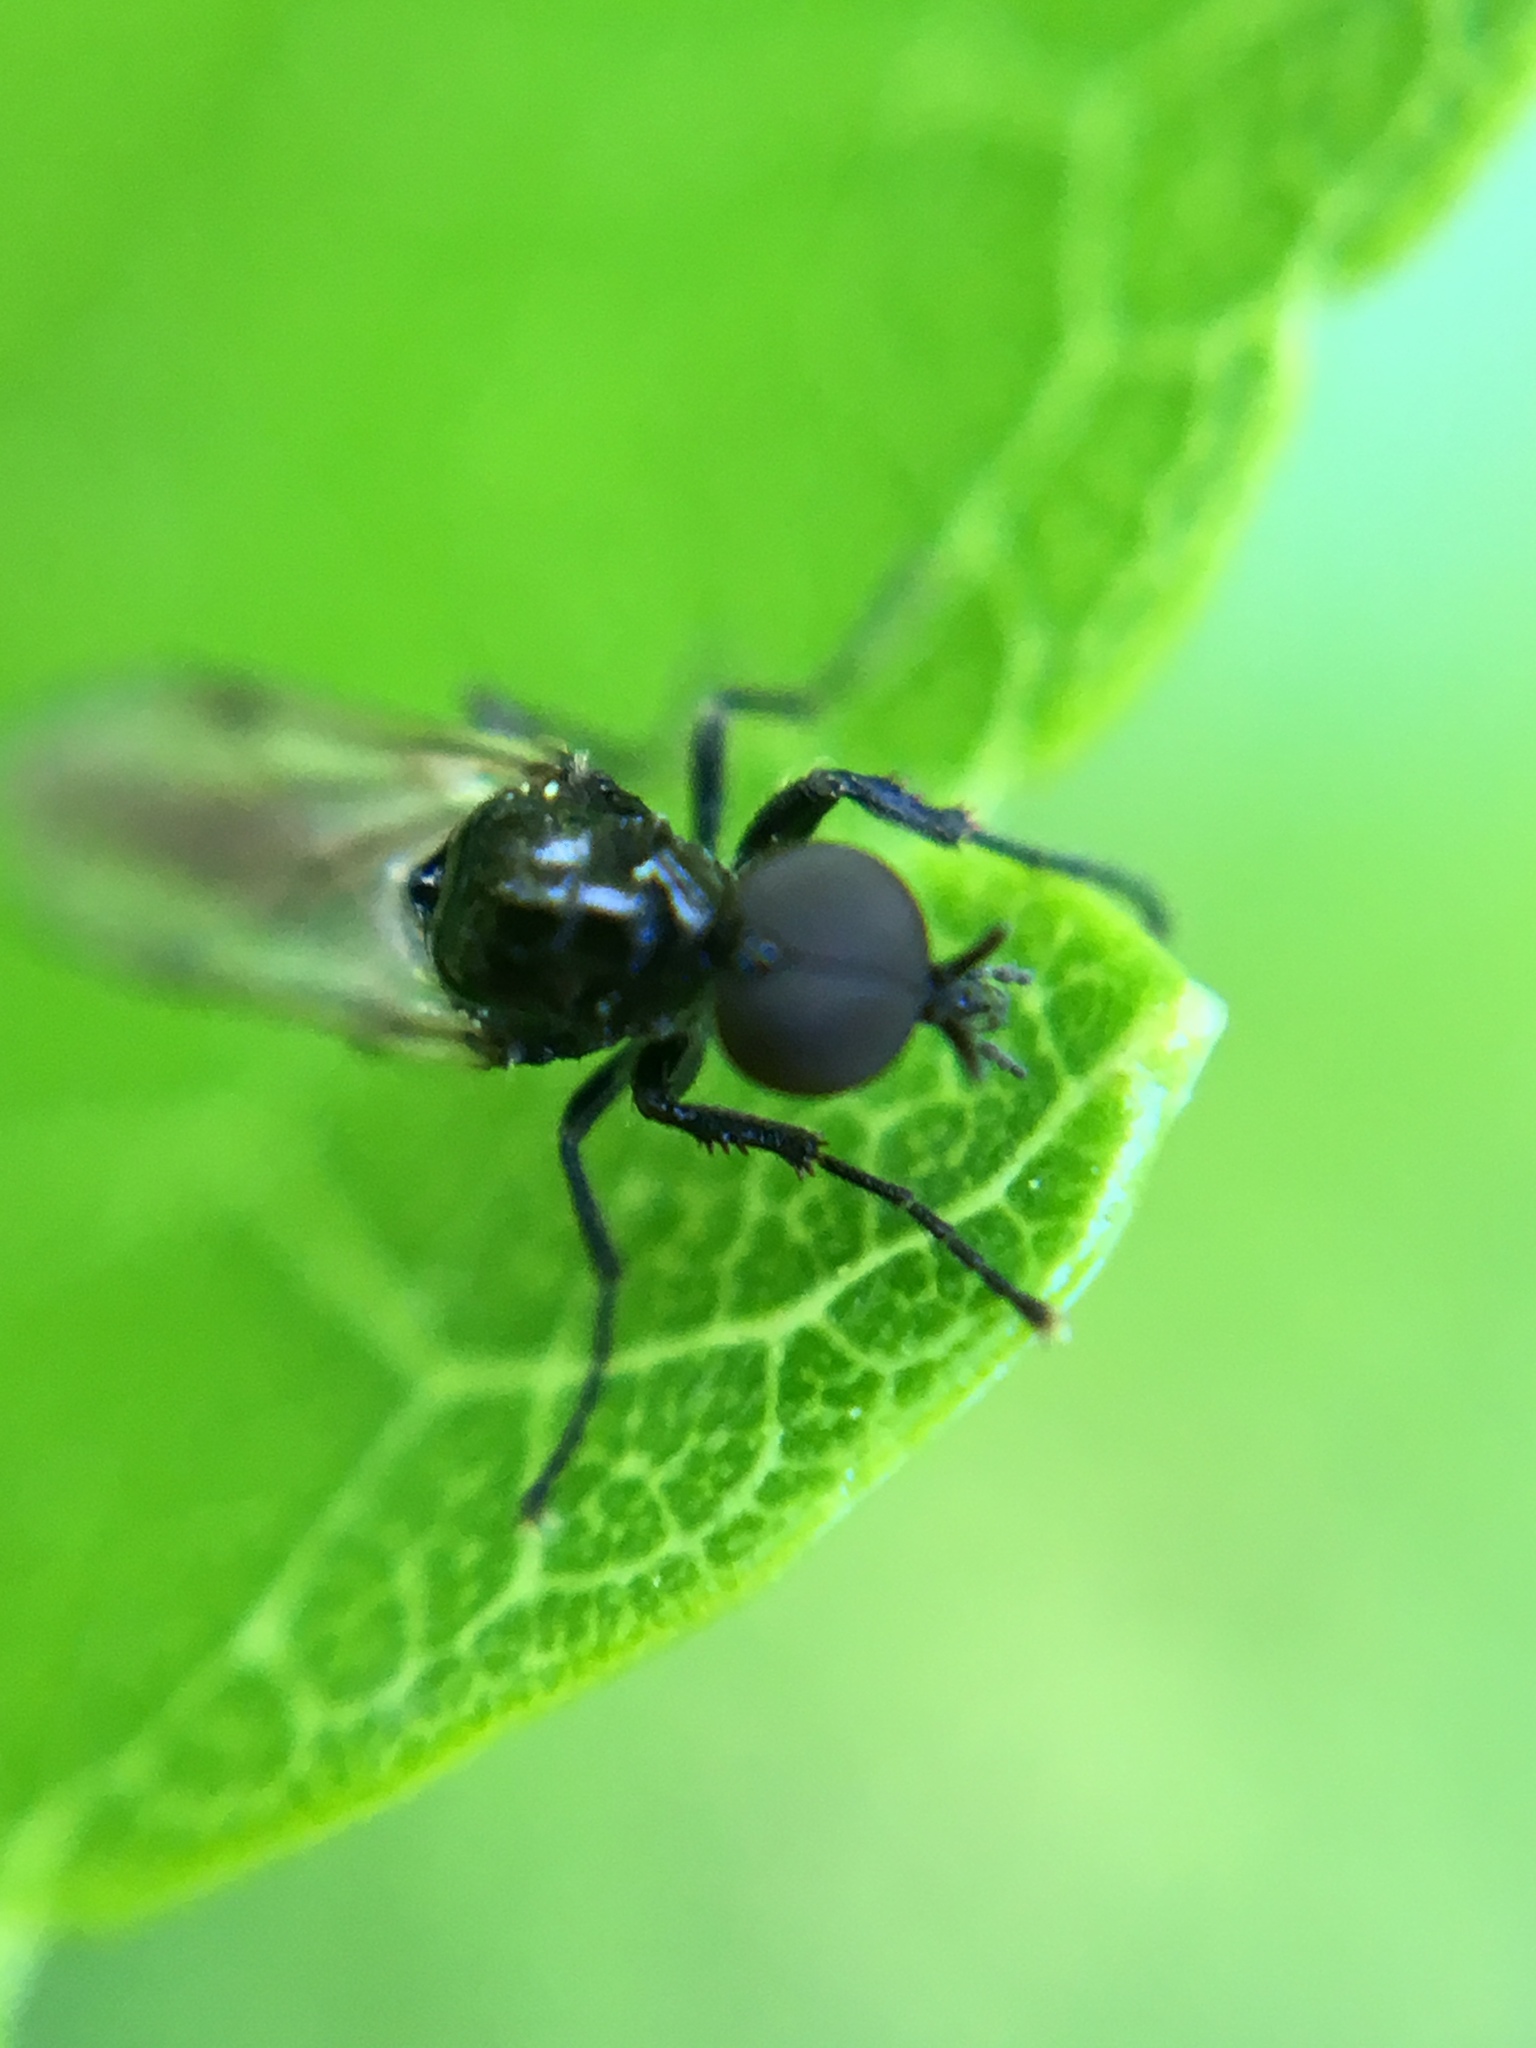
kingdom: Animalia
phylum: Arthropoda
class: Insecta
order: Diptera
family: Bibionidae
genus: Dilophus
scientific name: Dilophus
